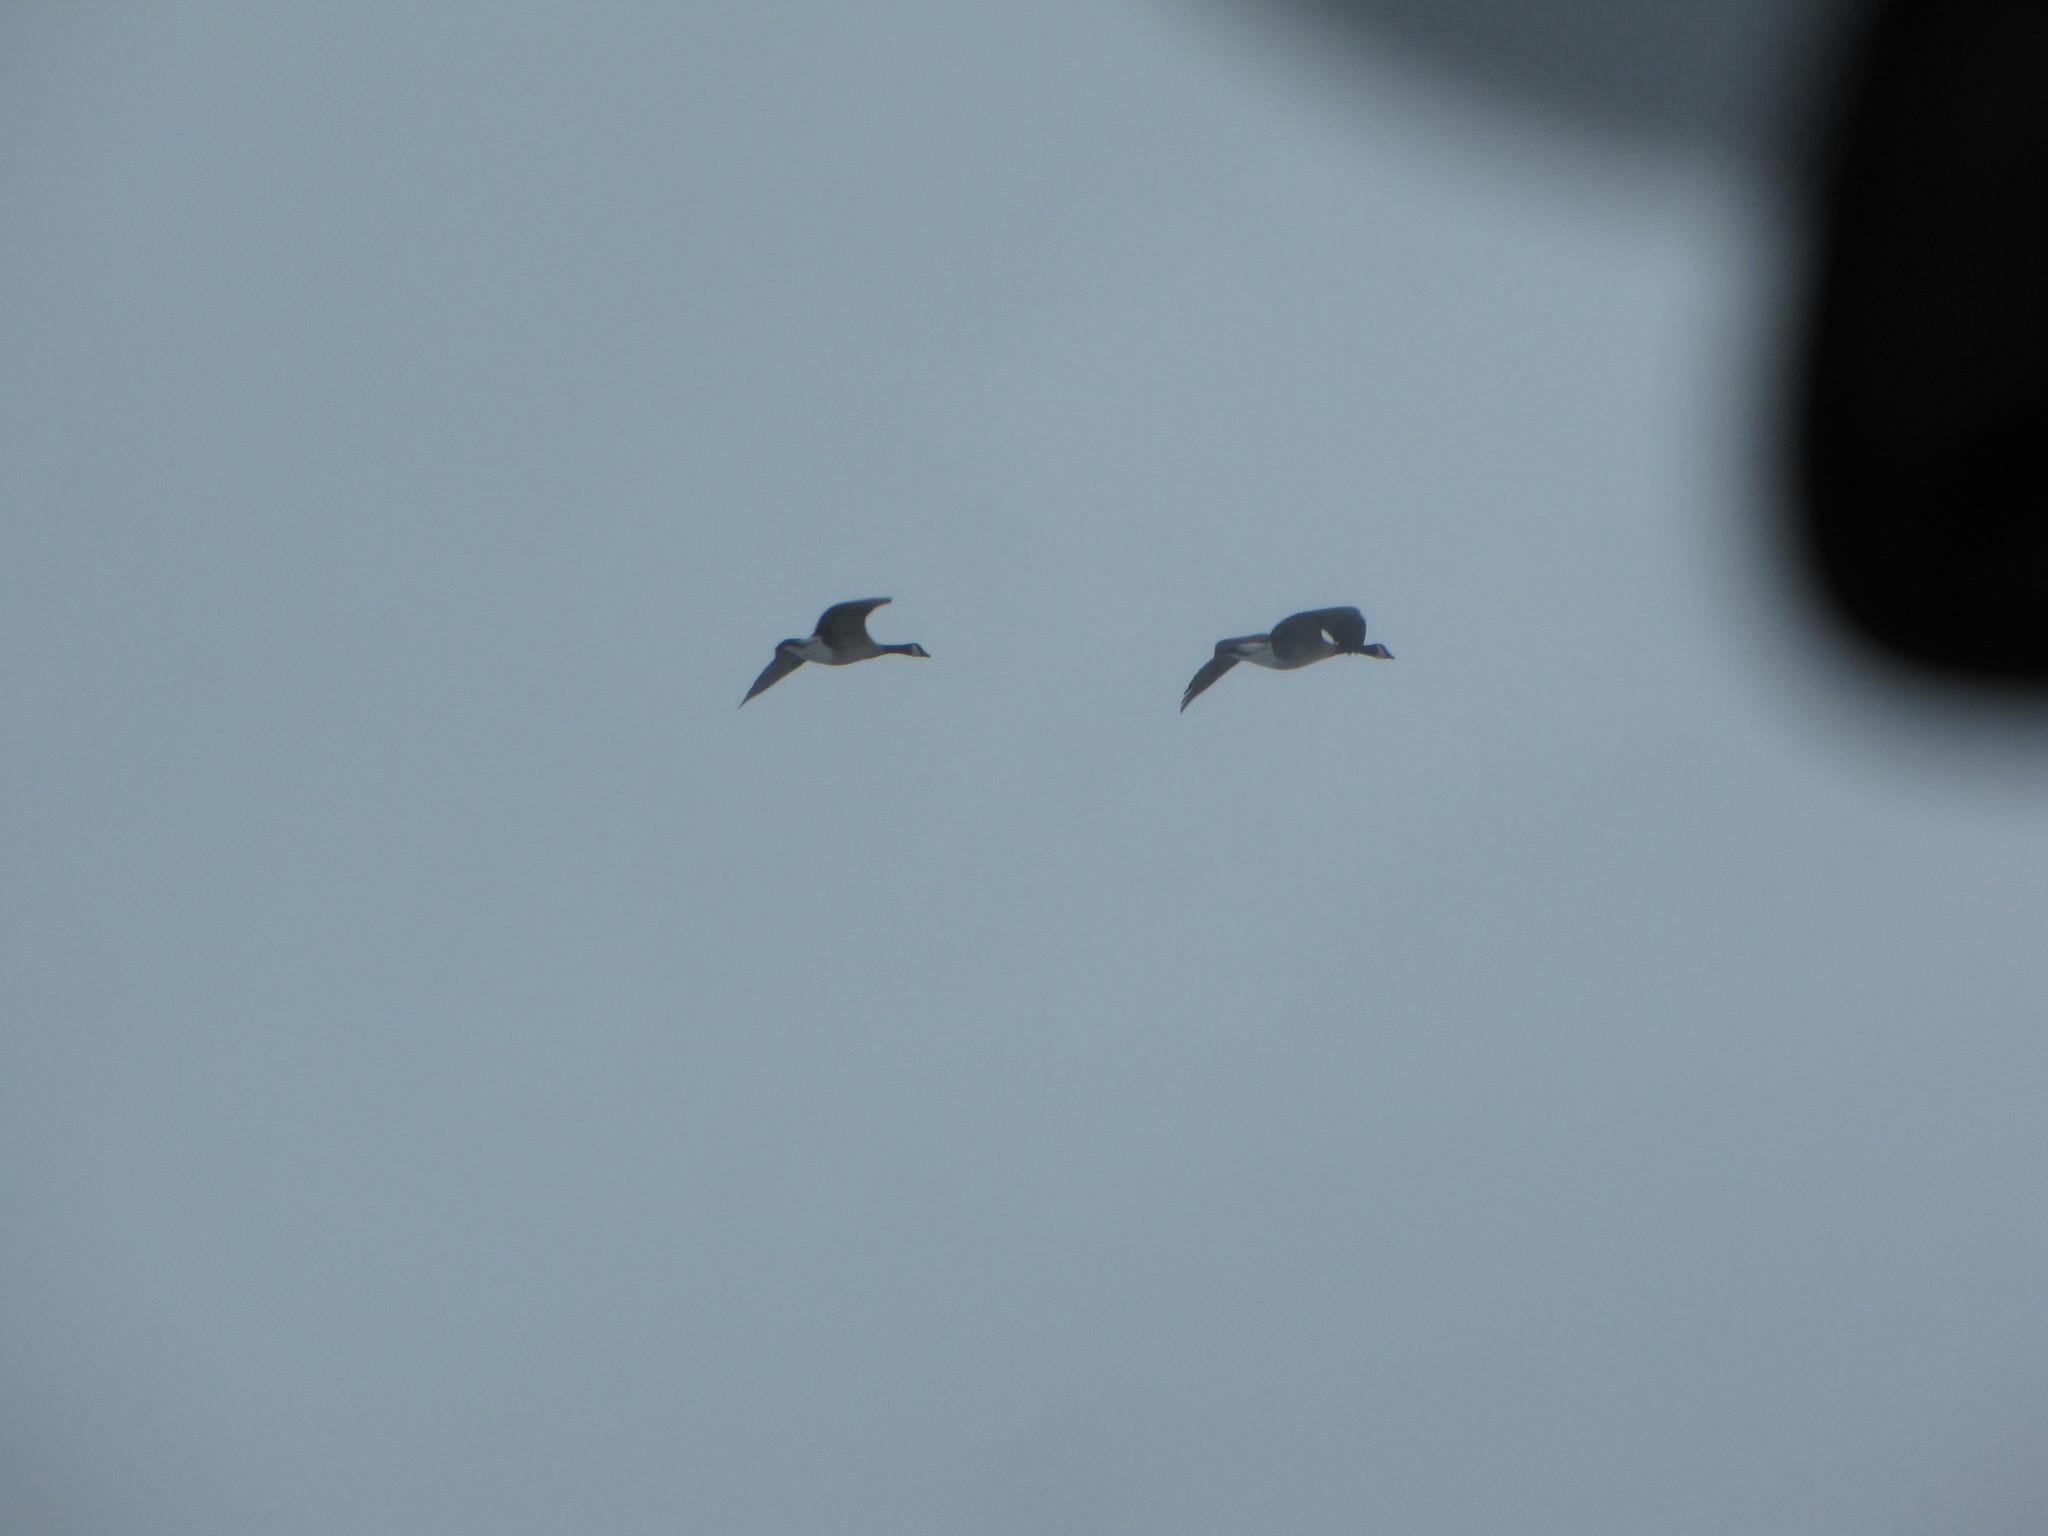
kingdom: Animalia
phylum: Chordata
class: Aves
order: Anseriformes
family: Anatidae
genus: Branta
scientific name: Branta canadensis
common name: Canada goose
